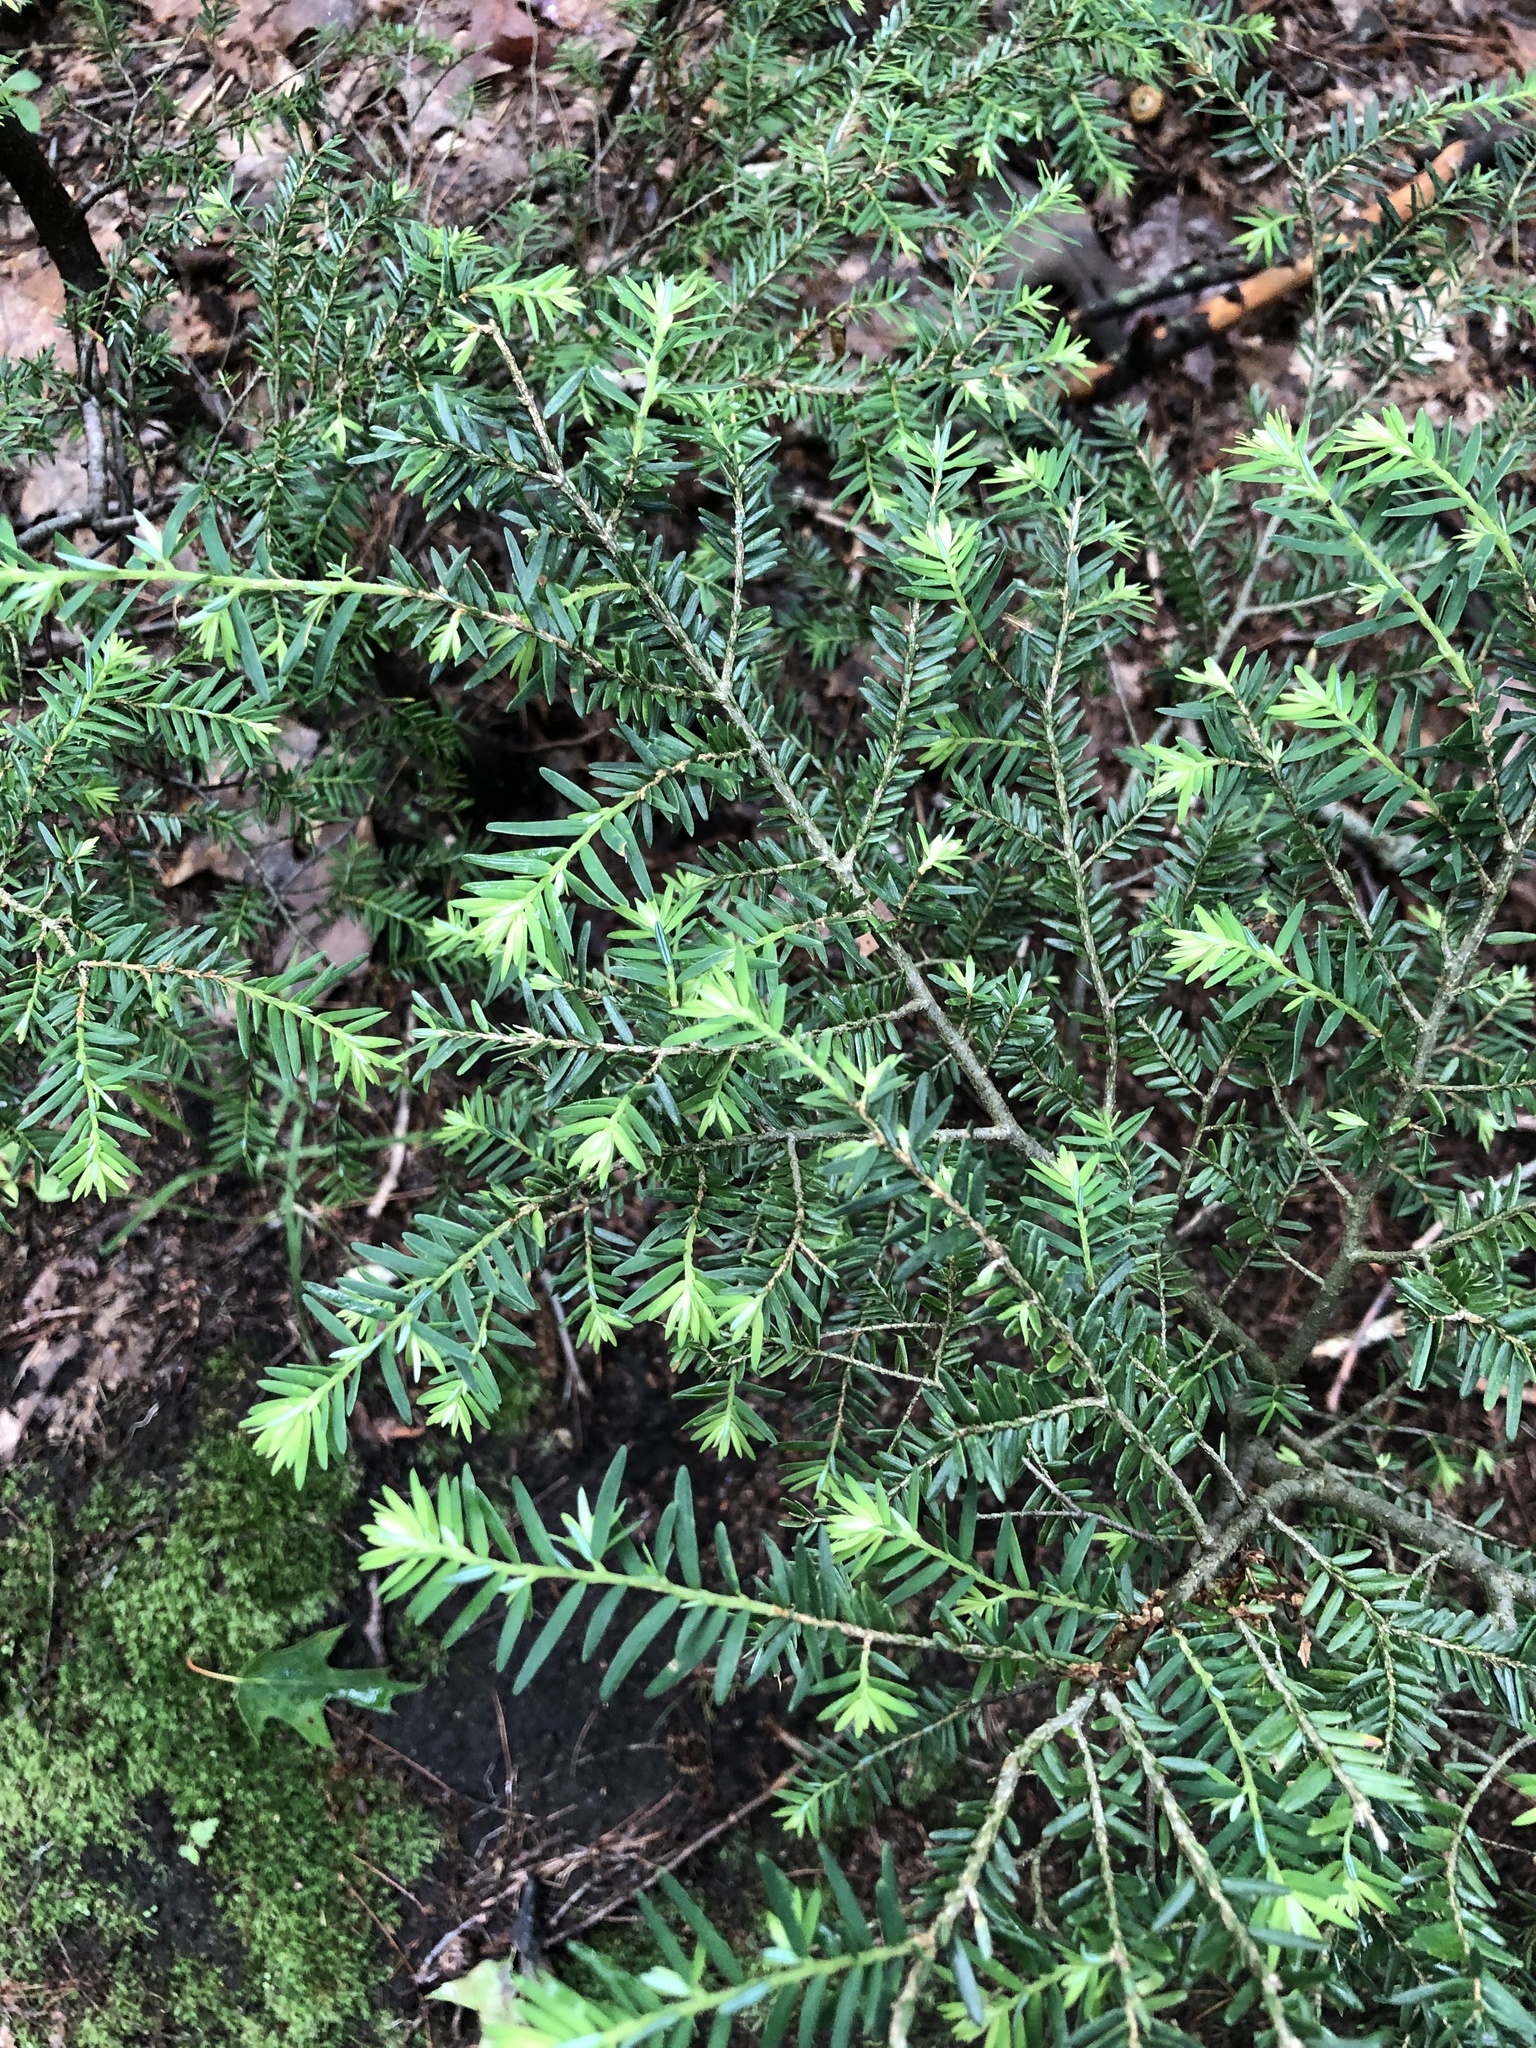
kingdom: Plantae
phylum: Tracheophyta
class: Pinopsida
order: Pinales
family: Pinaceae
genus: Tsuga
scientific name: Tsuga canadensis
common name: Eastern hemlock
